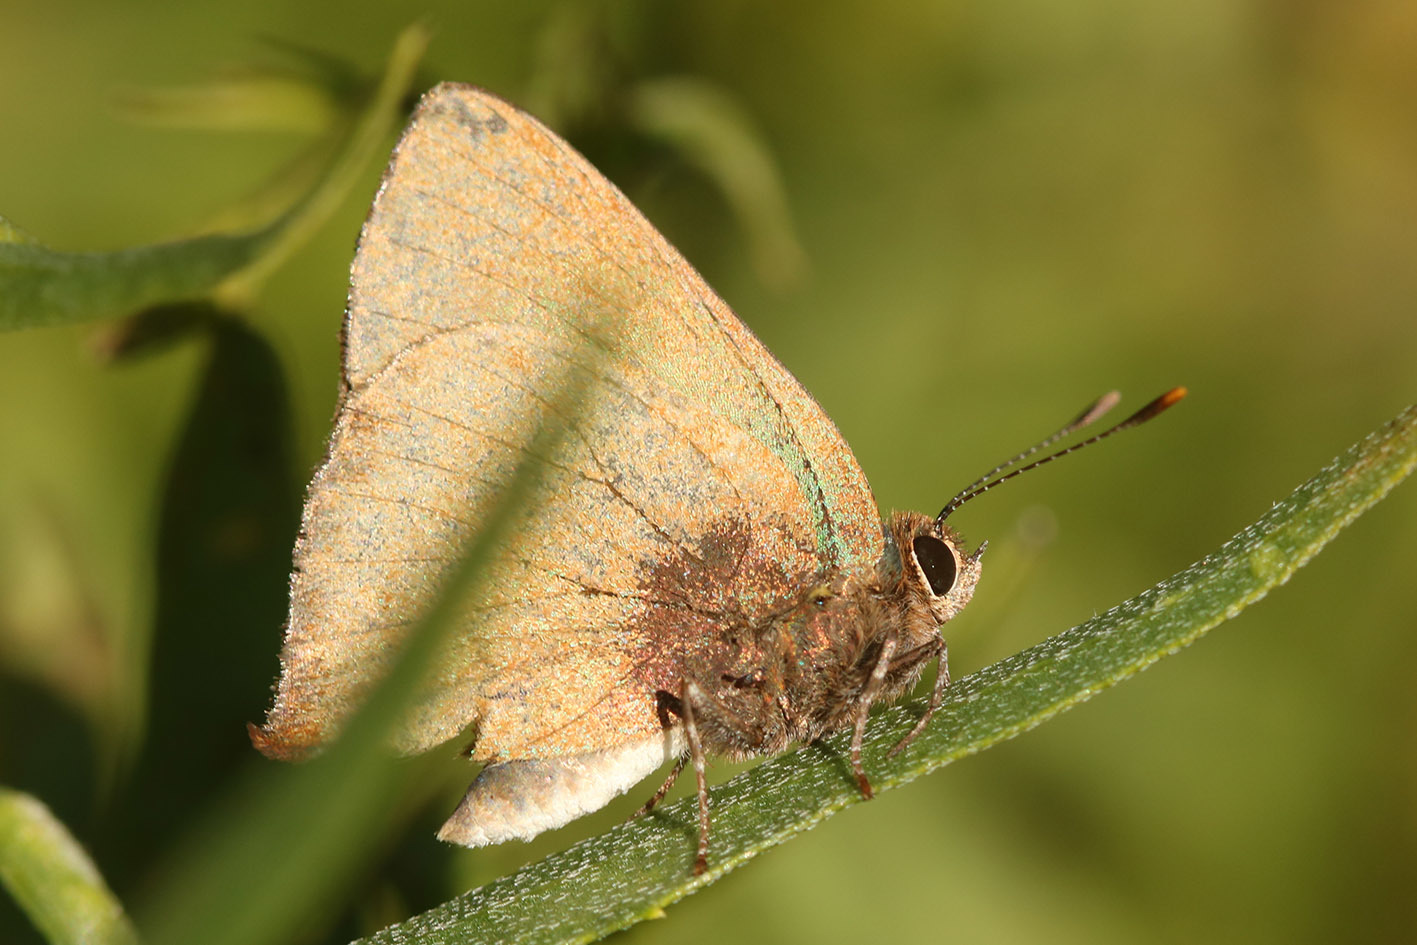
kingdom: Animalia
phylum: Arthropoda
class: Insecta
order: Lepidoptera
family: Lycaenidae
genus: Cyanophrys
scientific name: Cyanophrys
